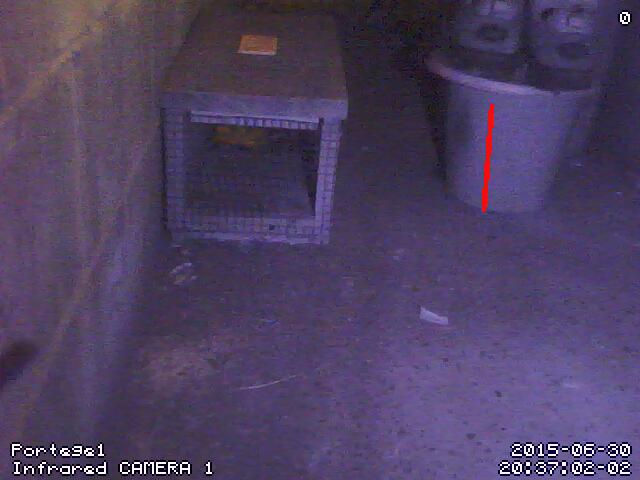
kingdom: Animalia
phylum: Chordata
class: Mammalia
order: Rodentia
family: Muridae
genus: Mus
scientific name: Mus musculus
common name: House mouse
